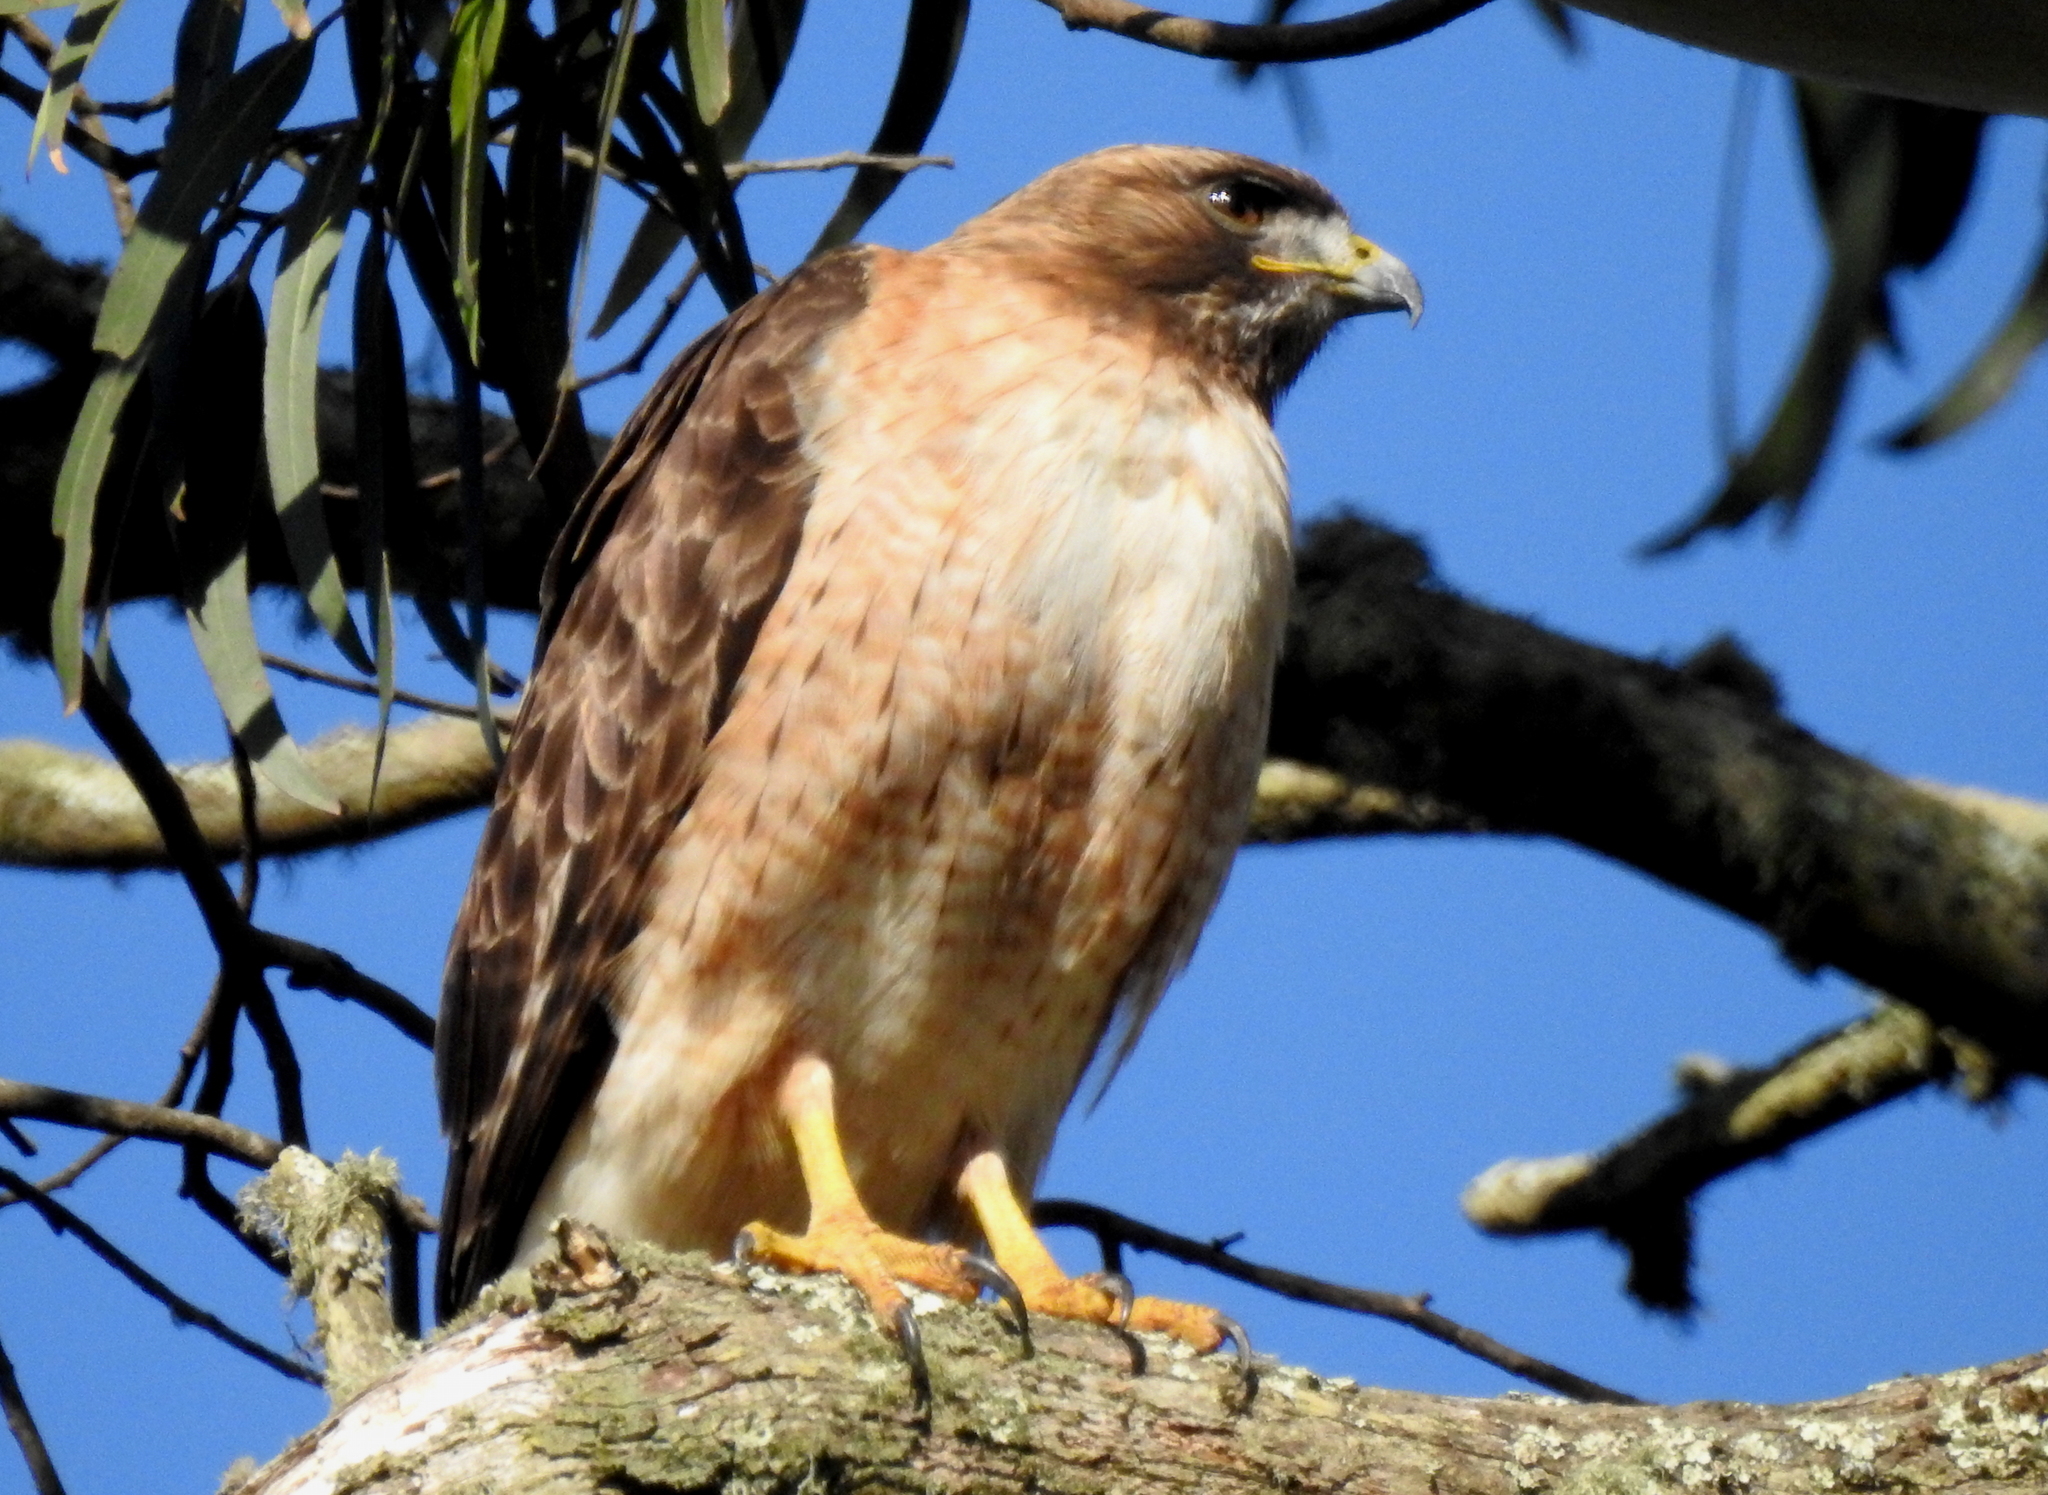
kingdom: Animalia
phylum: Chordata
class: Aves
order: Accipitriformes
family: Accipitridae
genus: Buteo
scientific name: Buteo jamaicensis
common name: Red-tailed hawk
